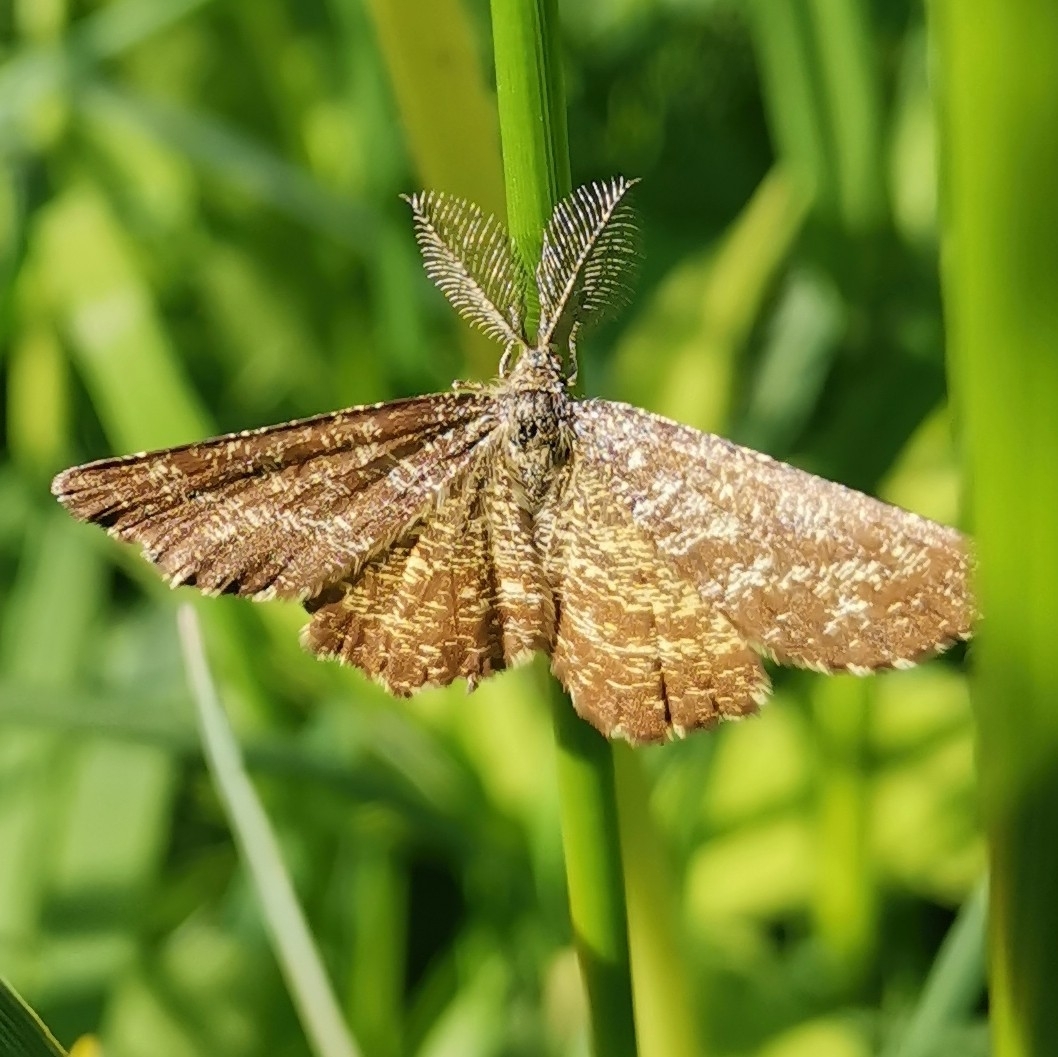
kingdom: Animalia
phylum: Arthropoda
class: Insecta
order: Lepidoptera
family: Geometridae
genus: Ematurga
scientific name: Ematurga atomaria
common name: Common heath
